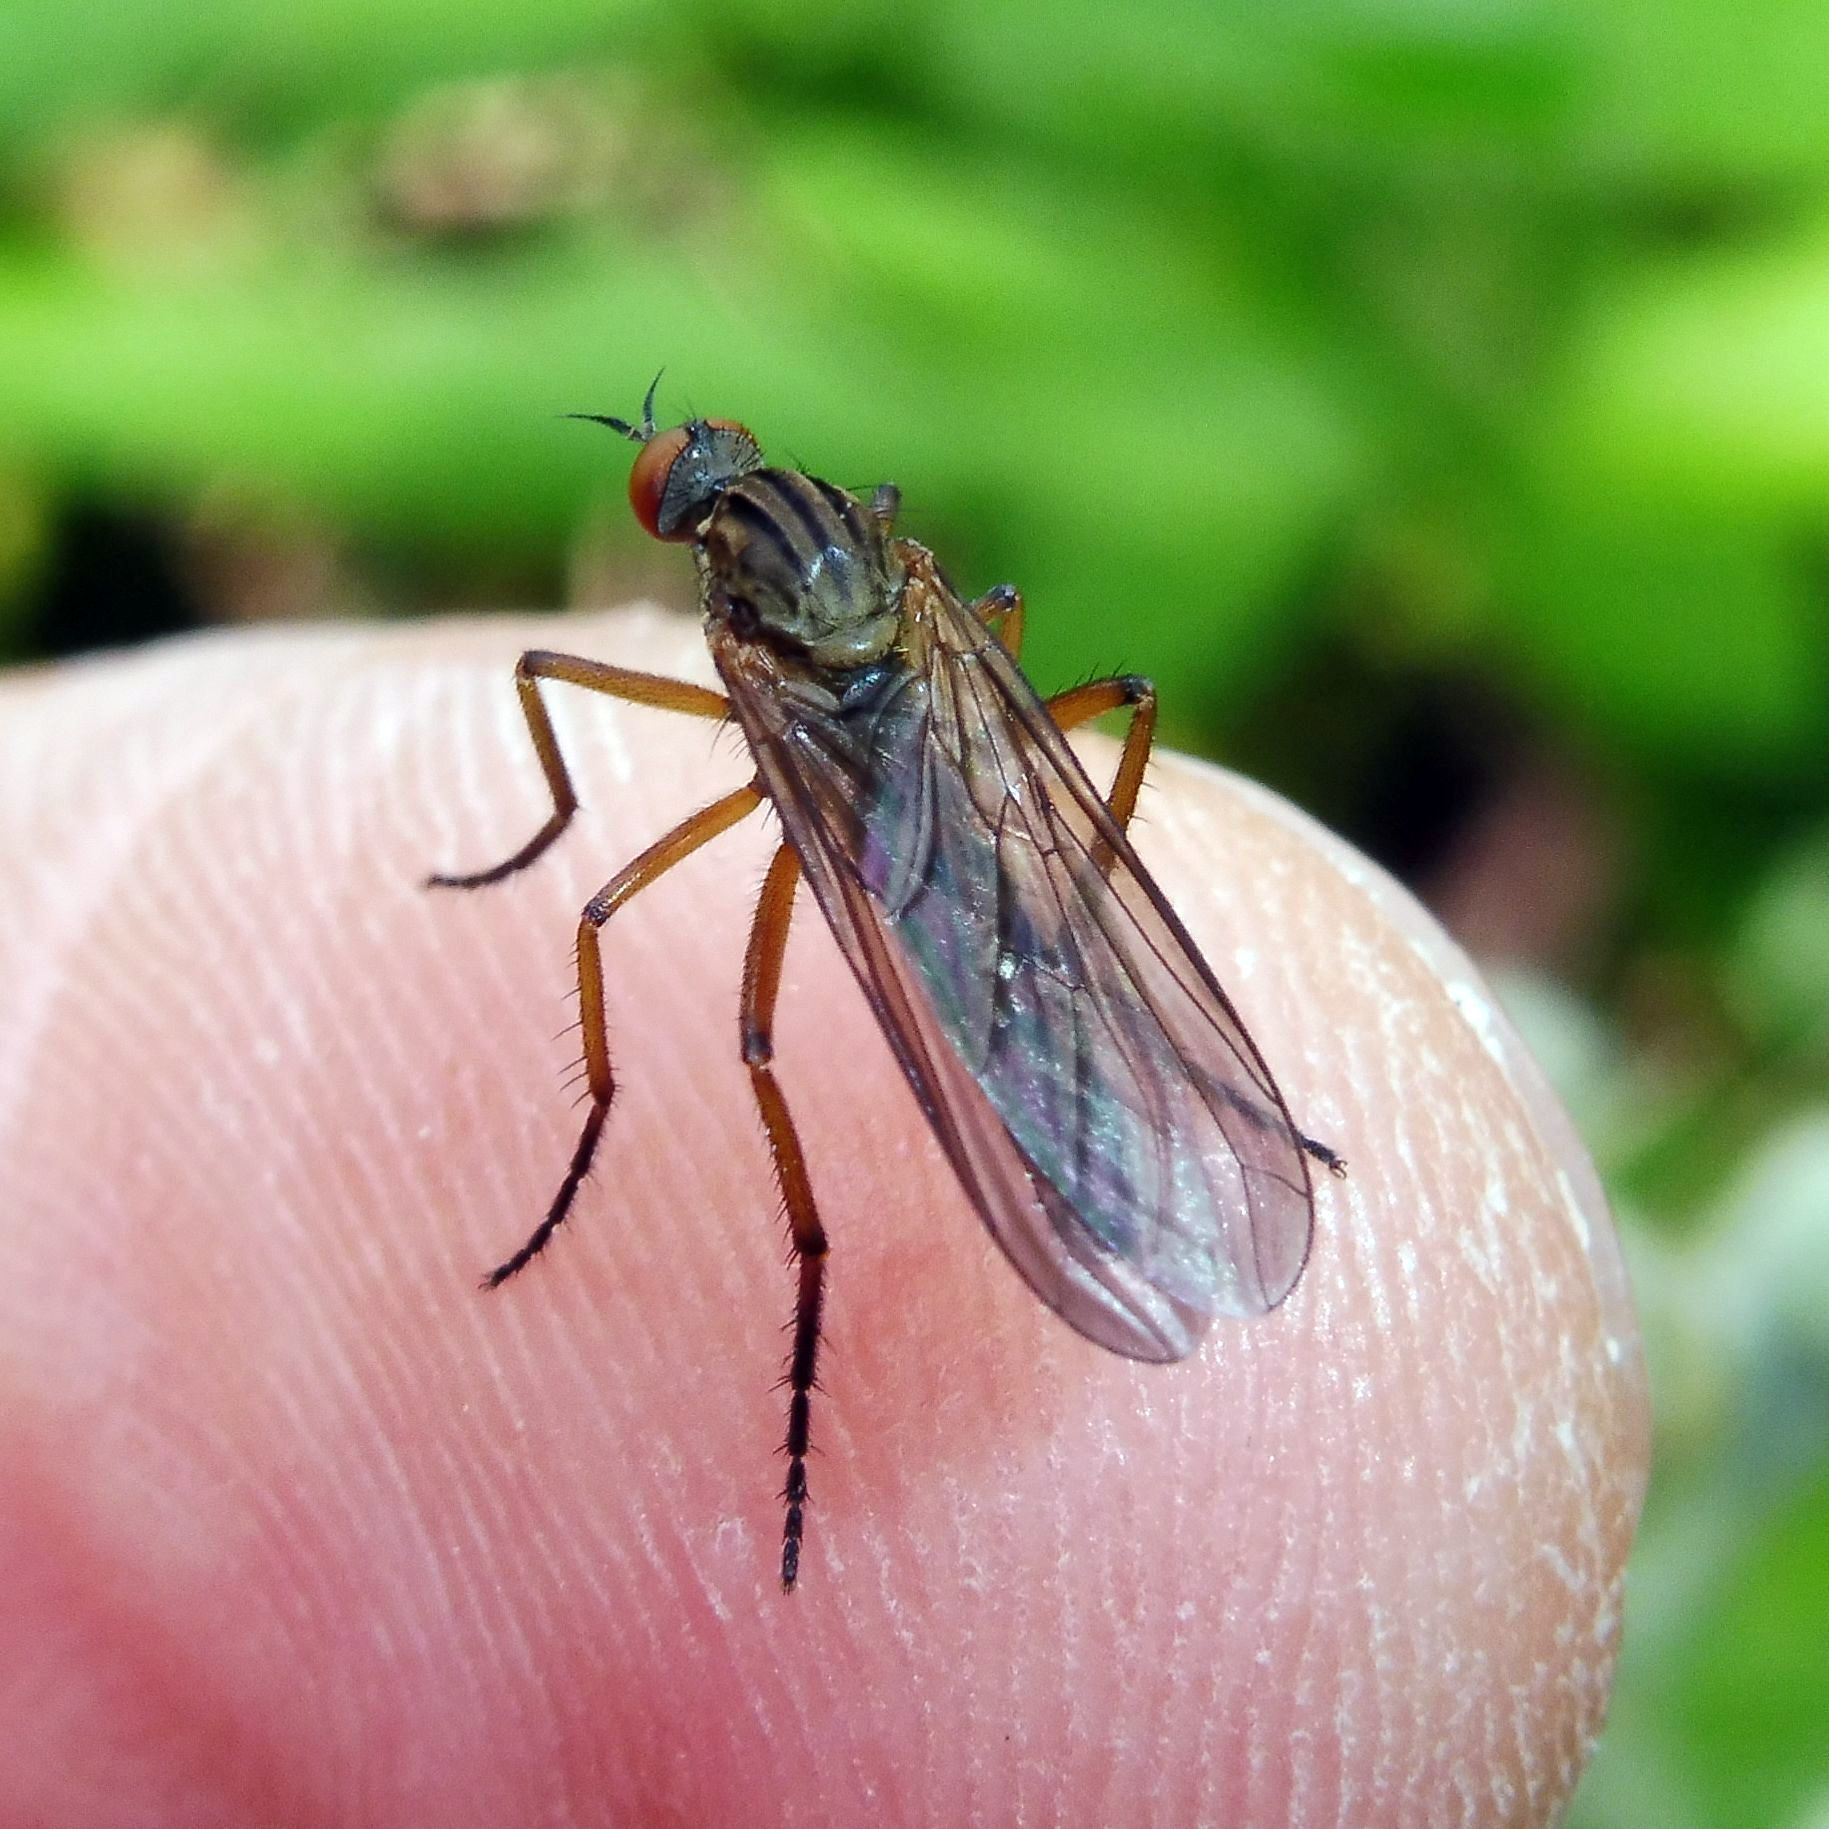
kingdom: Animalia
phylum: Arthropoda
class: Insecta
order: Diptera
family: Empididae
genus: Empis
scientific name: Empis livida
